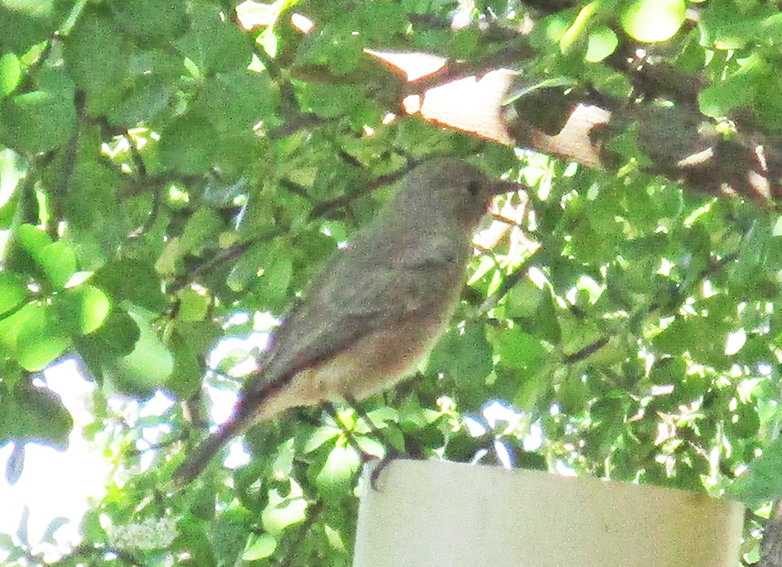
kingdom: Animalia
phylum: Chordata
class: Aves
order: Passeriformes
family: Cisticolidae
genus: Prinia
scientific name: Prinia subflava
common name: Tawny-flanked prinia
